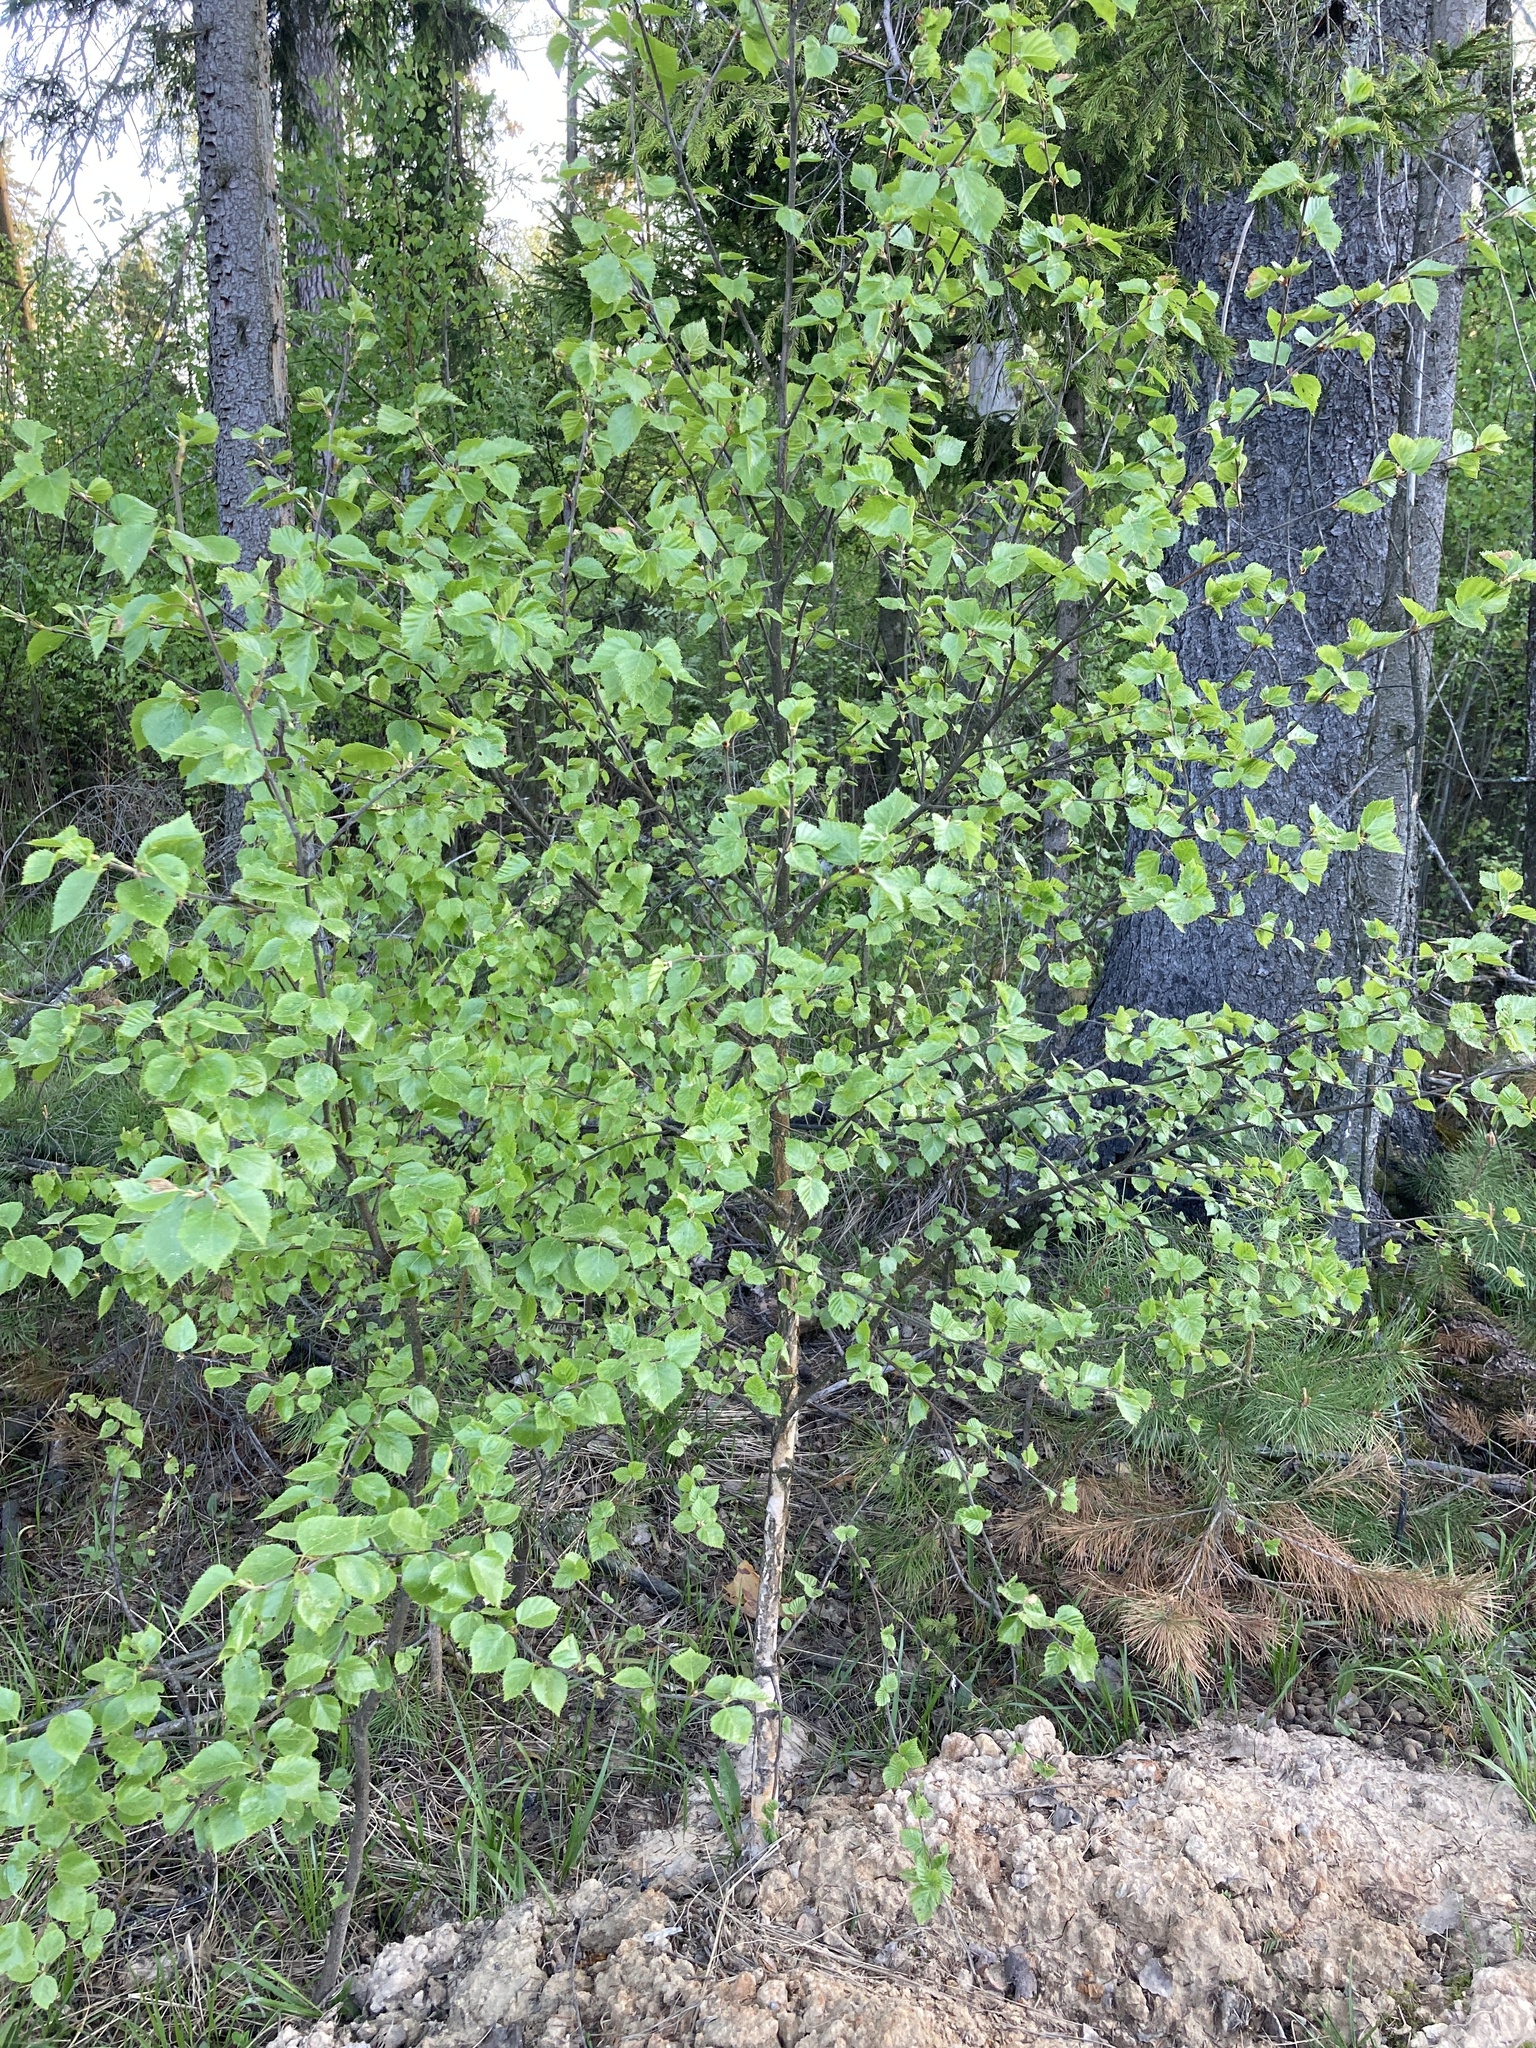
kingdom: Plantae
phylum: Tracheophyta
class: Magnoliopsida
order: Fagales
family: Betulaceae
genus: Betula
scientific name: Betula pubescens
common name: Downy birch
